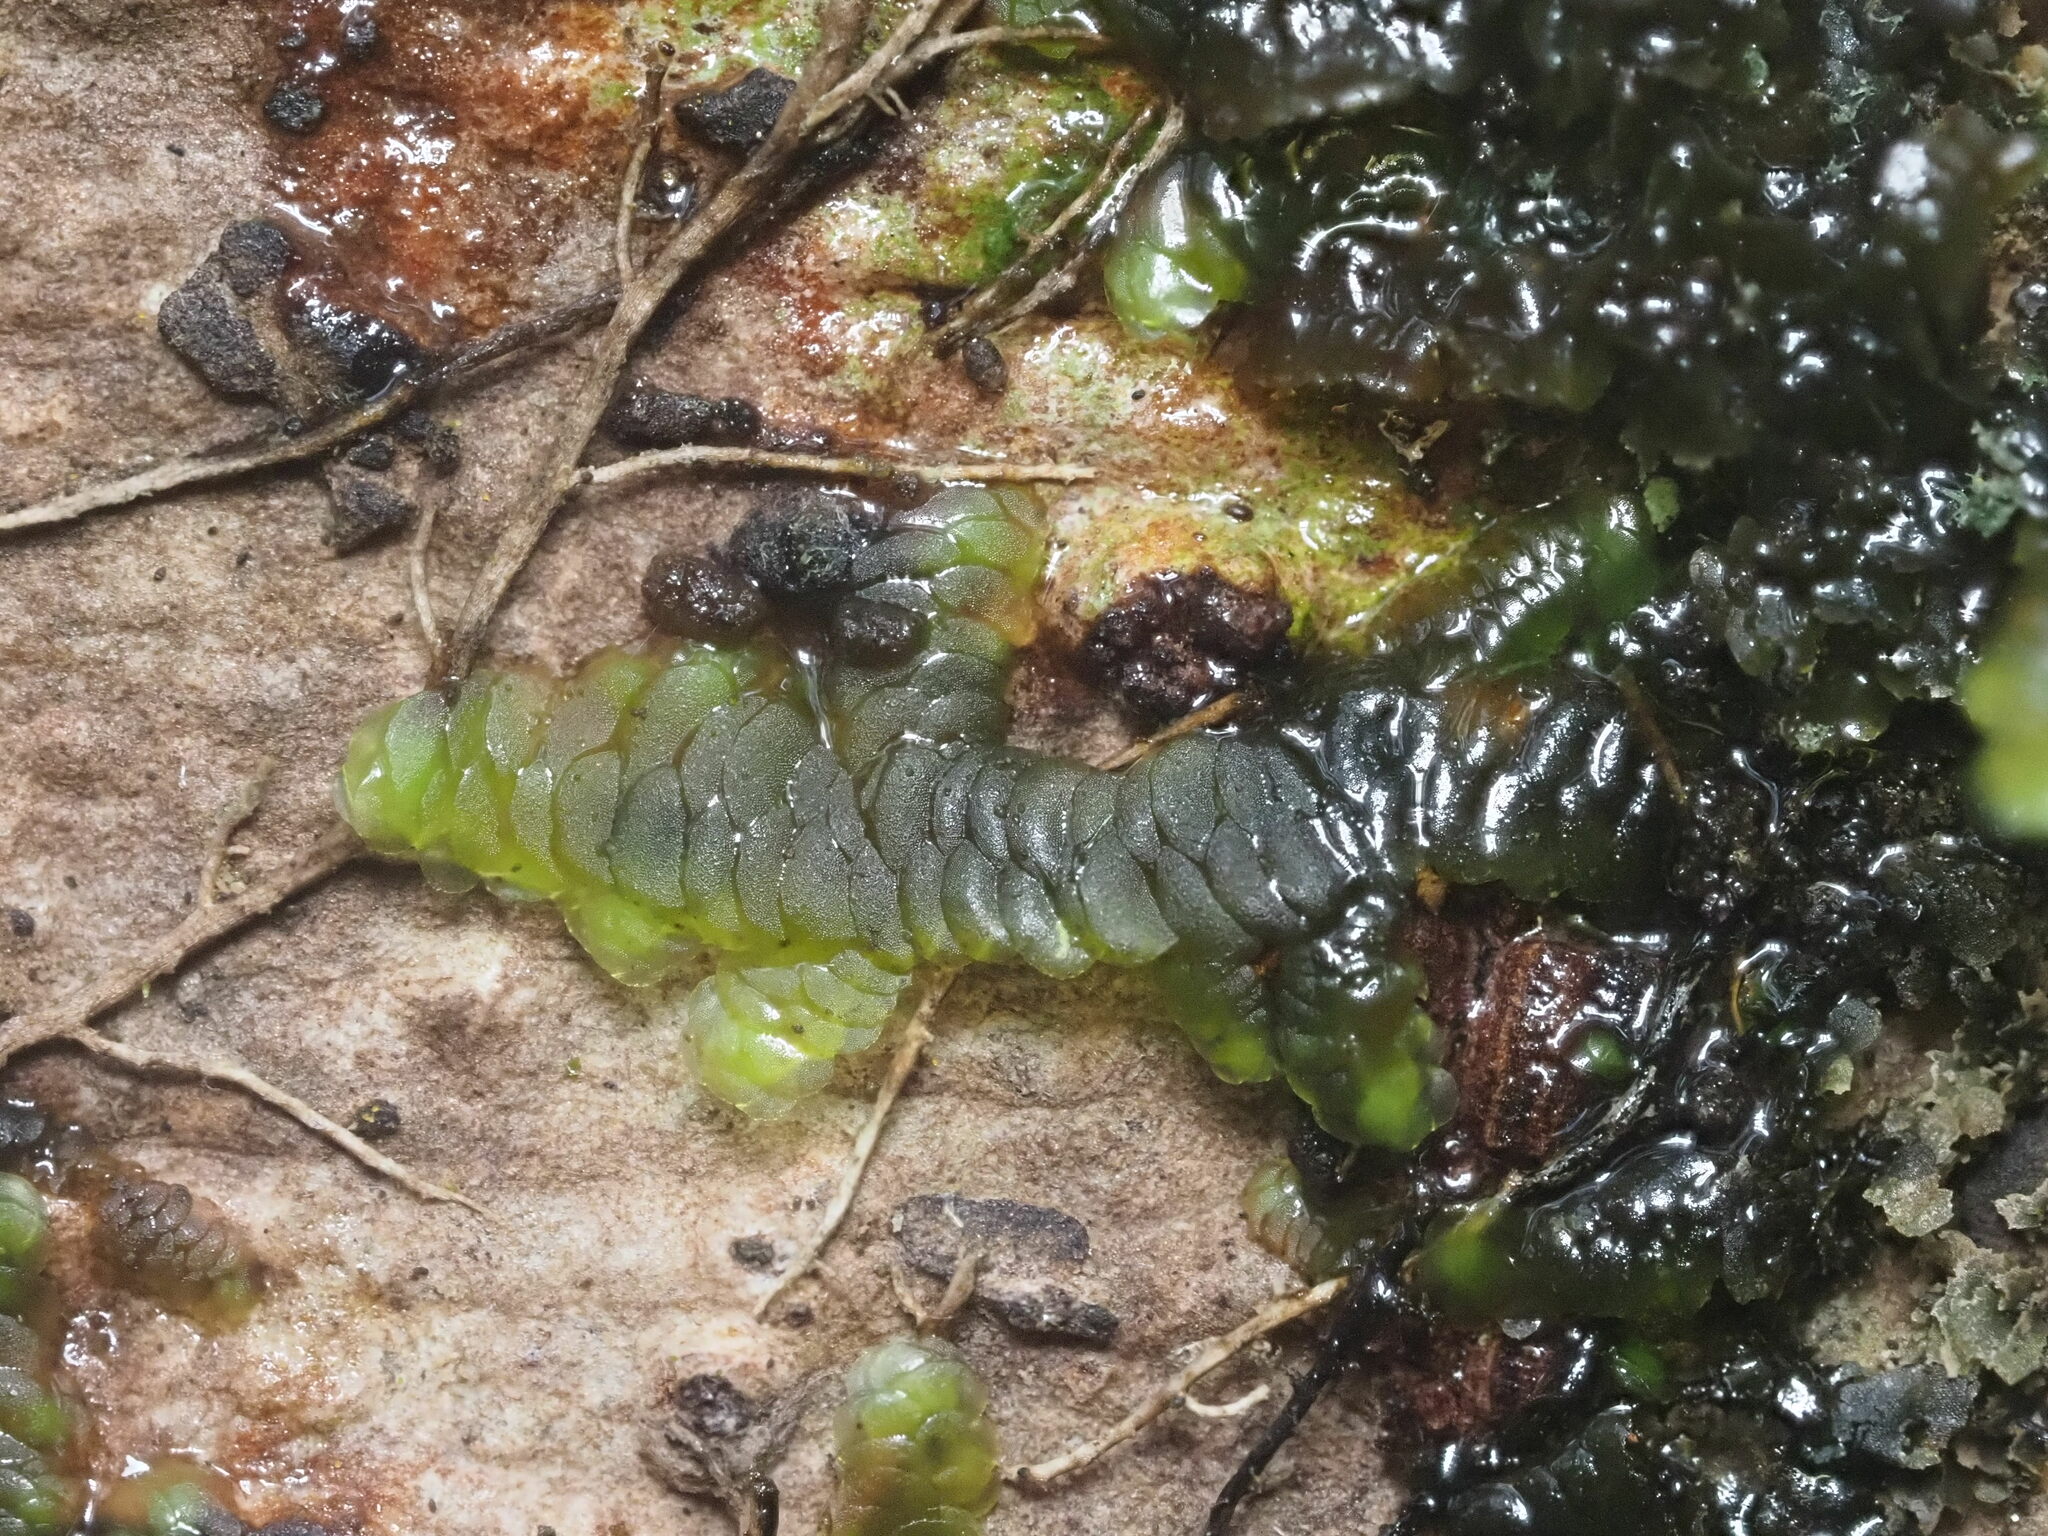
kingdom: Plantae
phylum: Marchantiophyta
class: Jungermanniopsida
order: Porellales
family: Radulaceae
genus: Radula
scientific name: Radula acutangula
